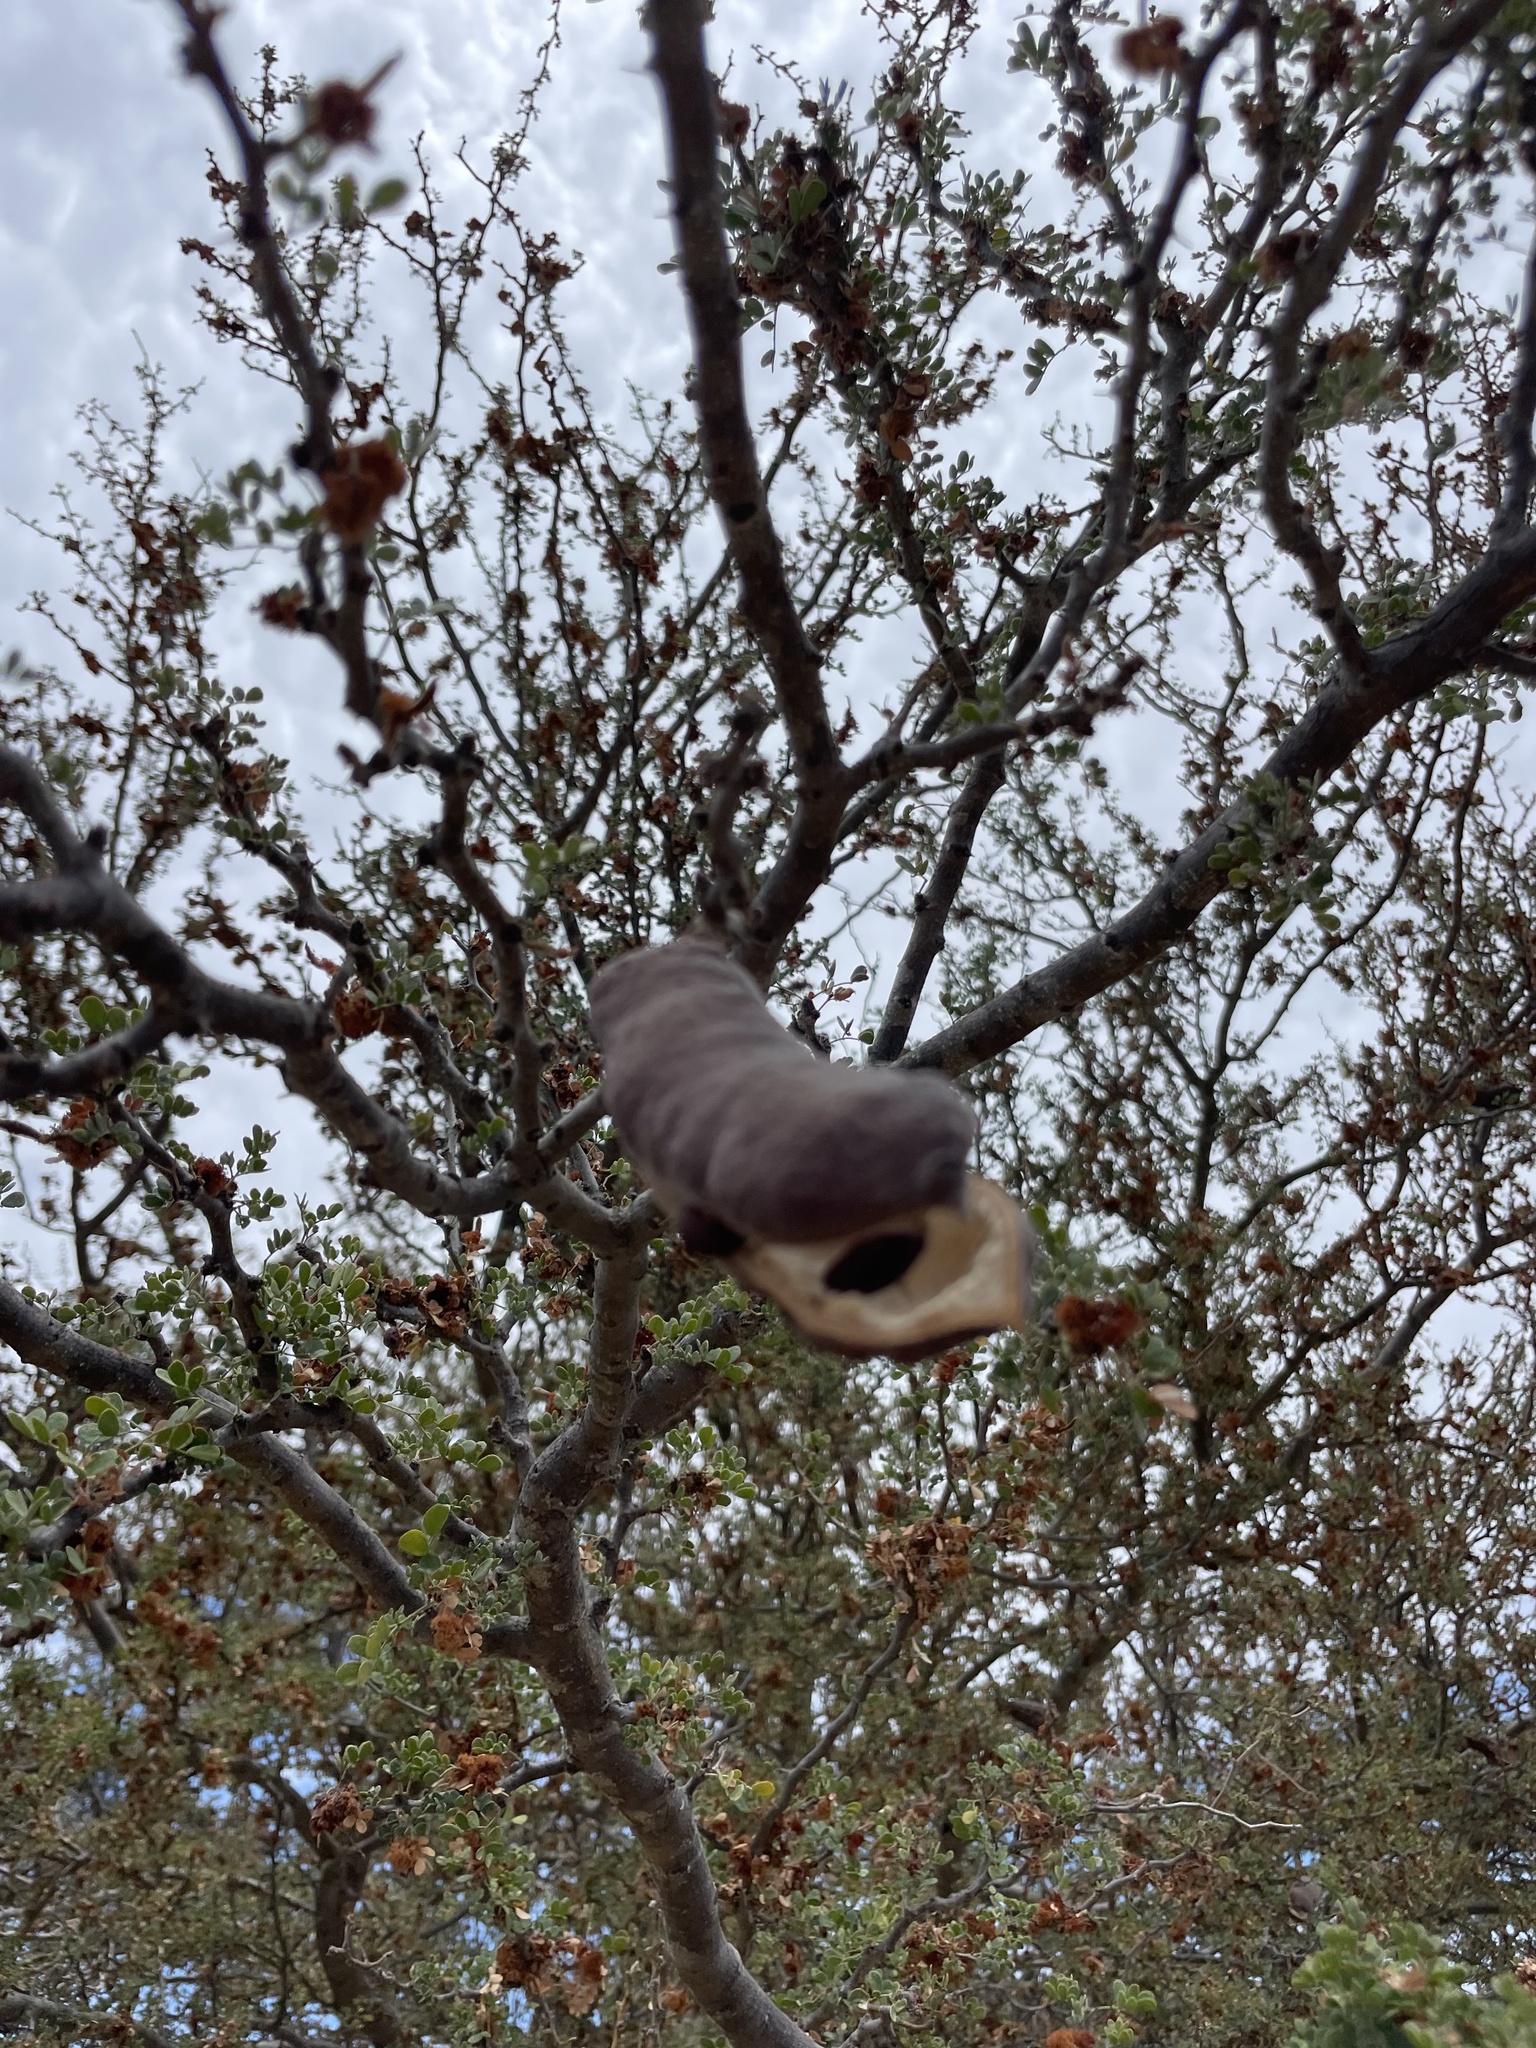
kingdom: Plantae
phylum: Tracheophyta
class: Magnoliopsida
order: Fabales
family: Fabaceae
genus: Ebenopsis
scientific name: Ebenopsis confinis
